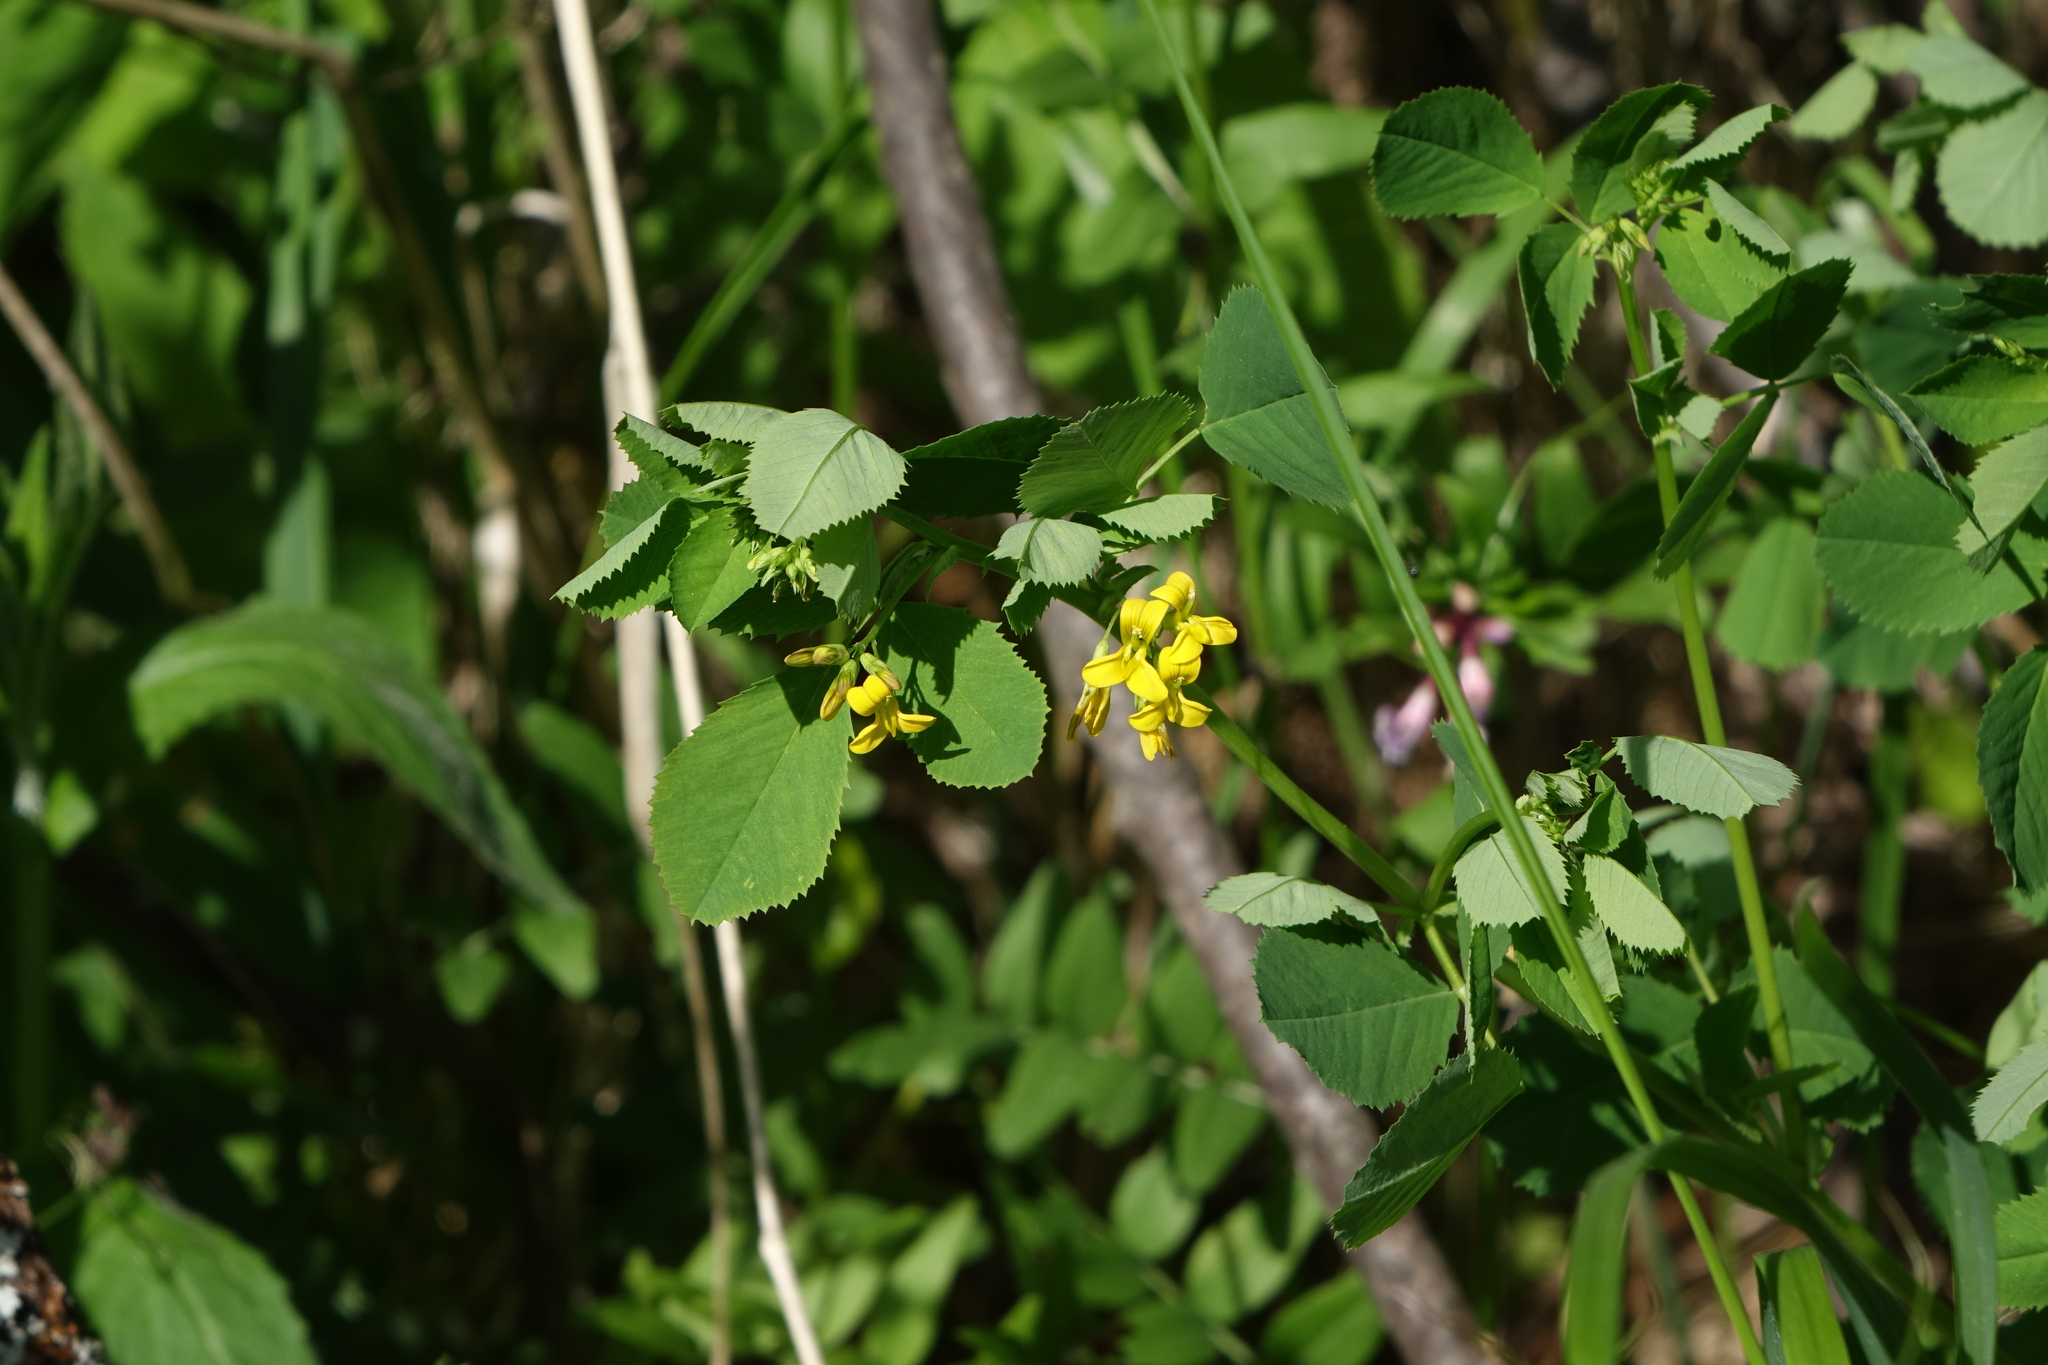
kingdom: Plantae
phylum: Tracheophyta
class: Magnoliopsida
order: Fabales
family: Fabaceae
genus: Medicago
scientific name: Medicago platycarpos
